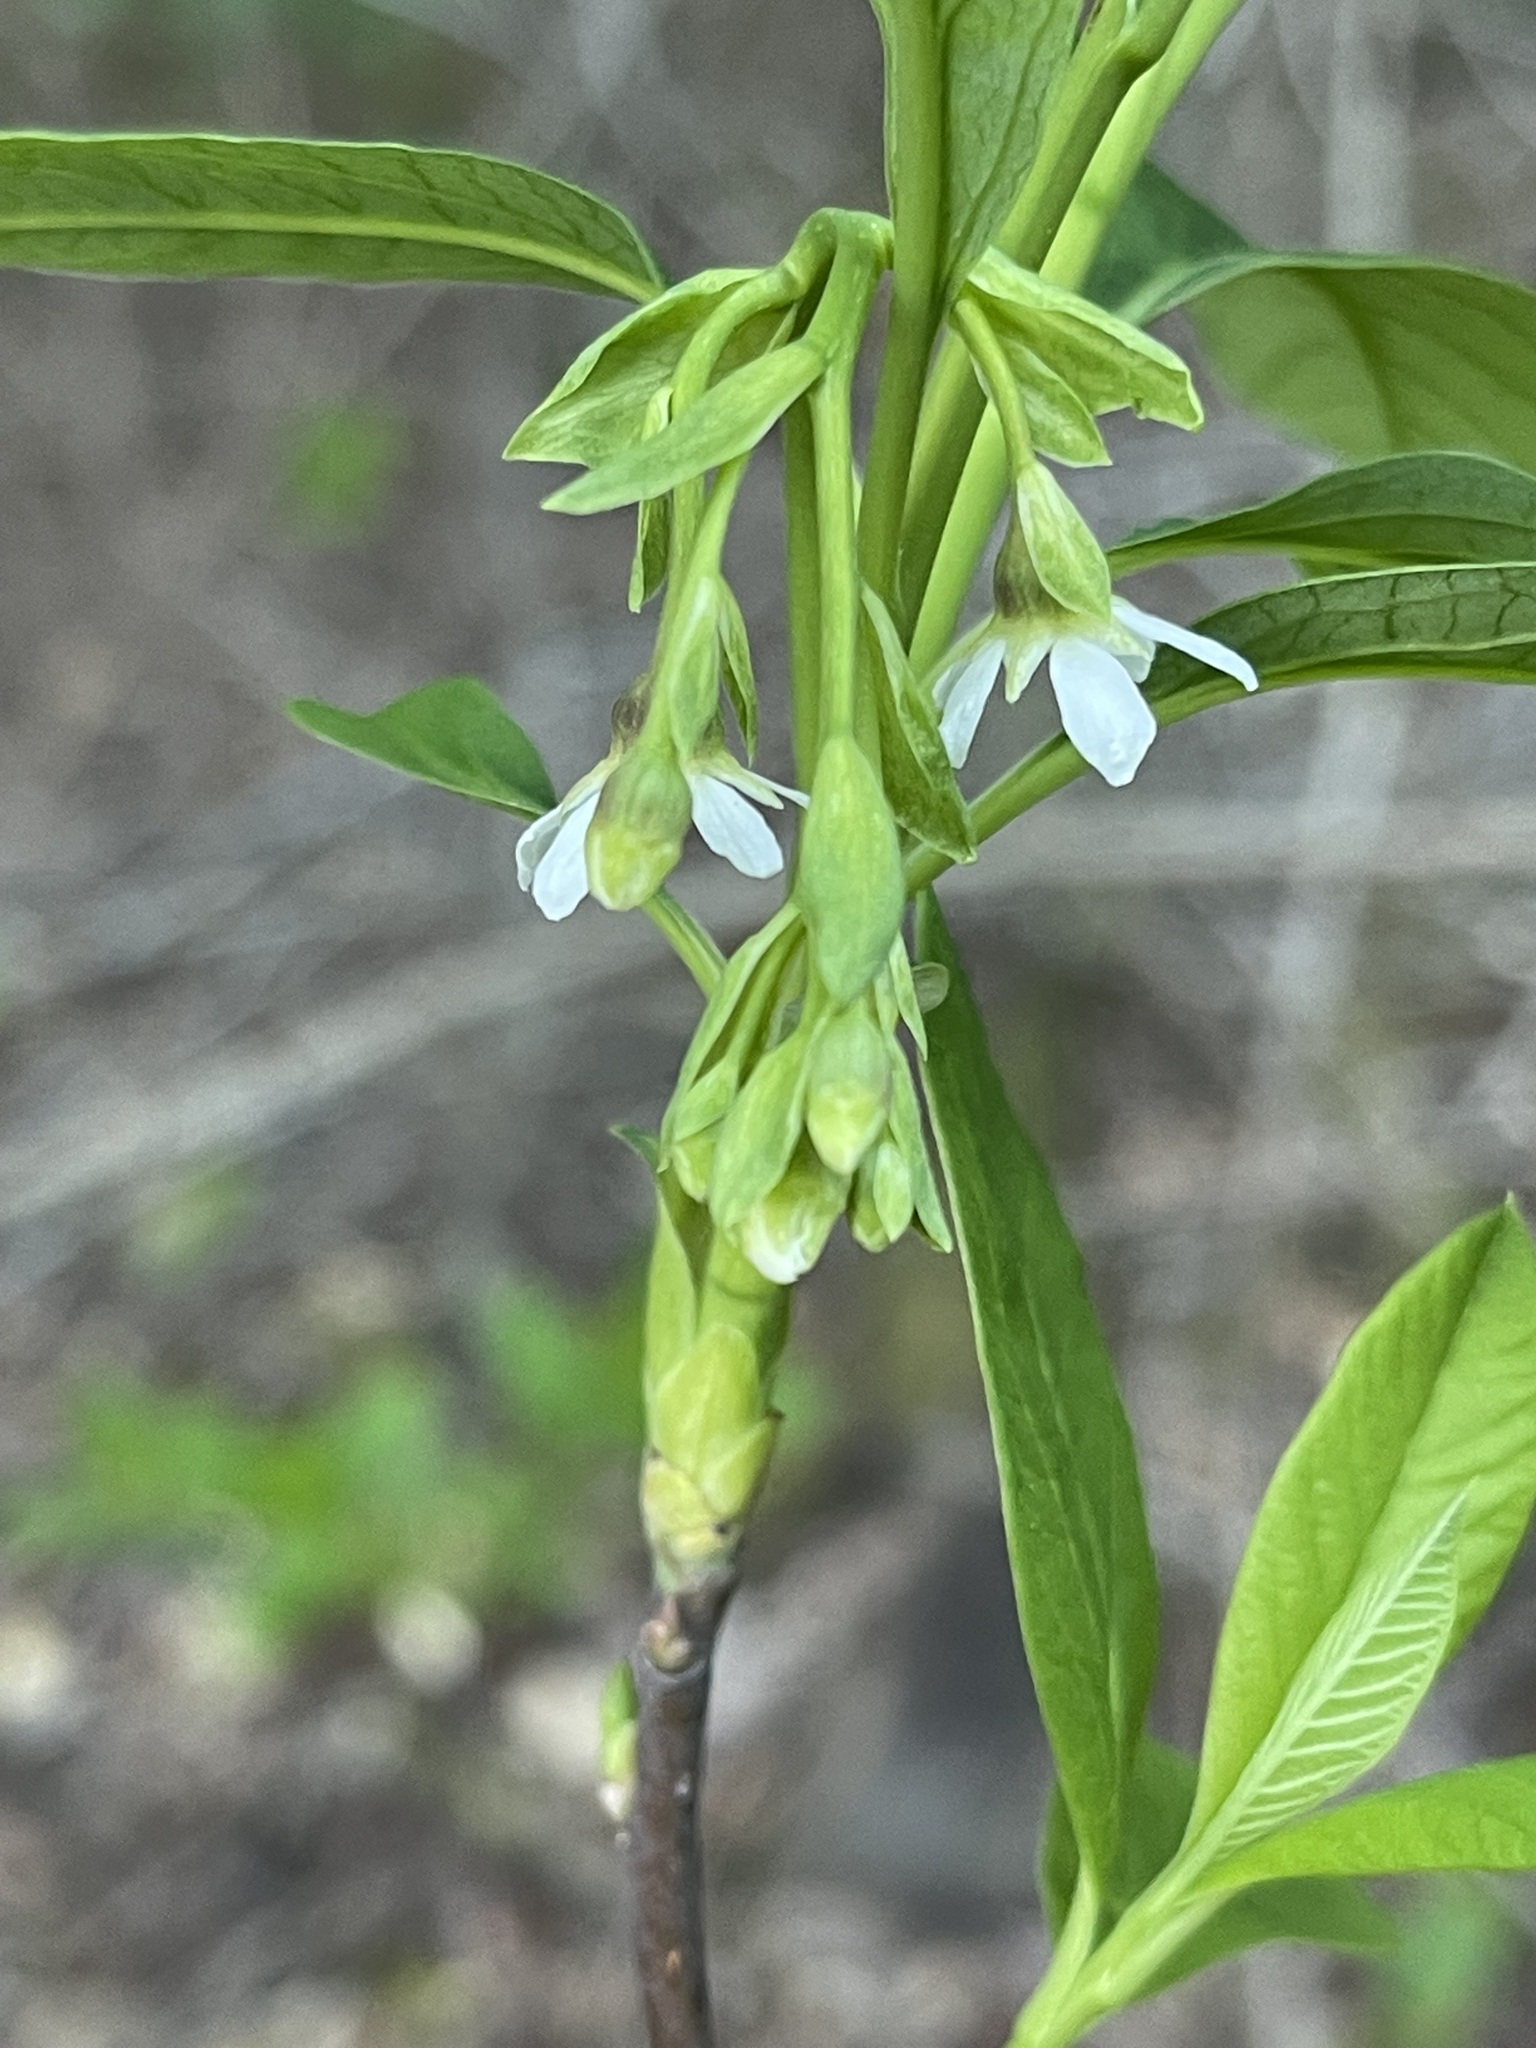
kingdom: Plantae
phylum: Tracheophyta
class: Magnoliopsida
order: Rosales
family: Rosaceae
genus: Oemleria
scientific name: Oemleria cerasiformis
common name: Osoberry
